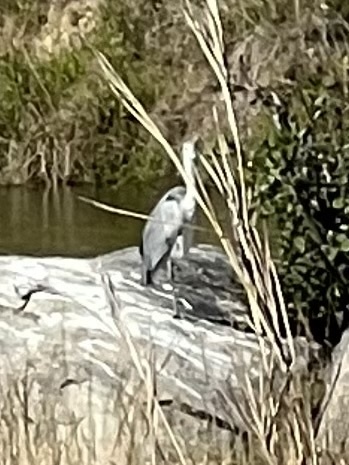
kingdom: Animalia
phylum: Chordata
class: Aves
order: Pelecaniformes
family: Ardeidae
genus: Ardea
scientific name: Ardea cinerea
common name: Grey heron
